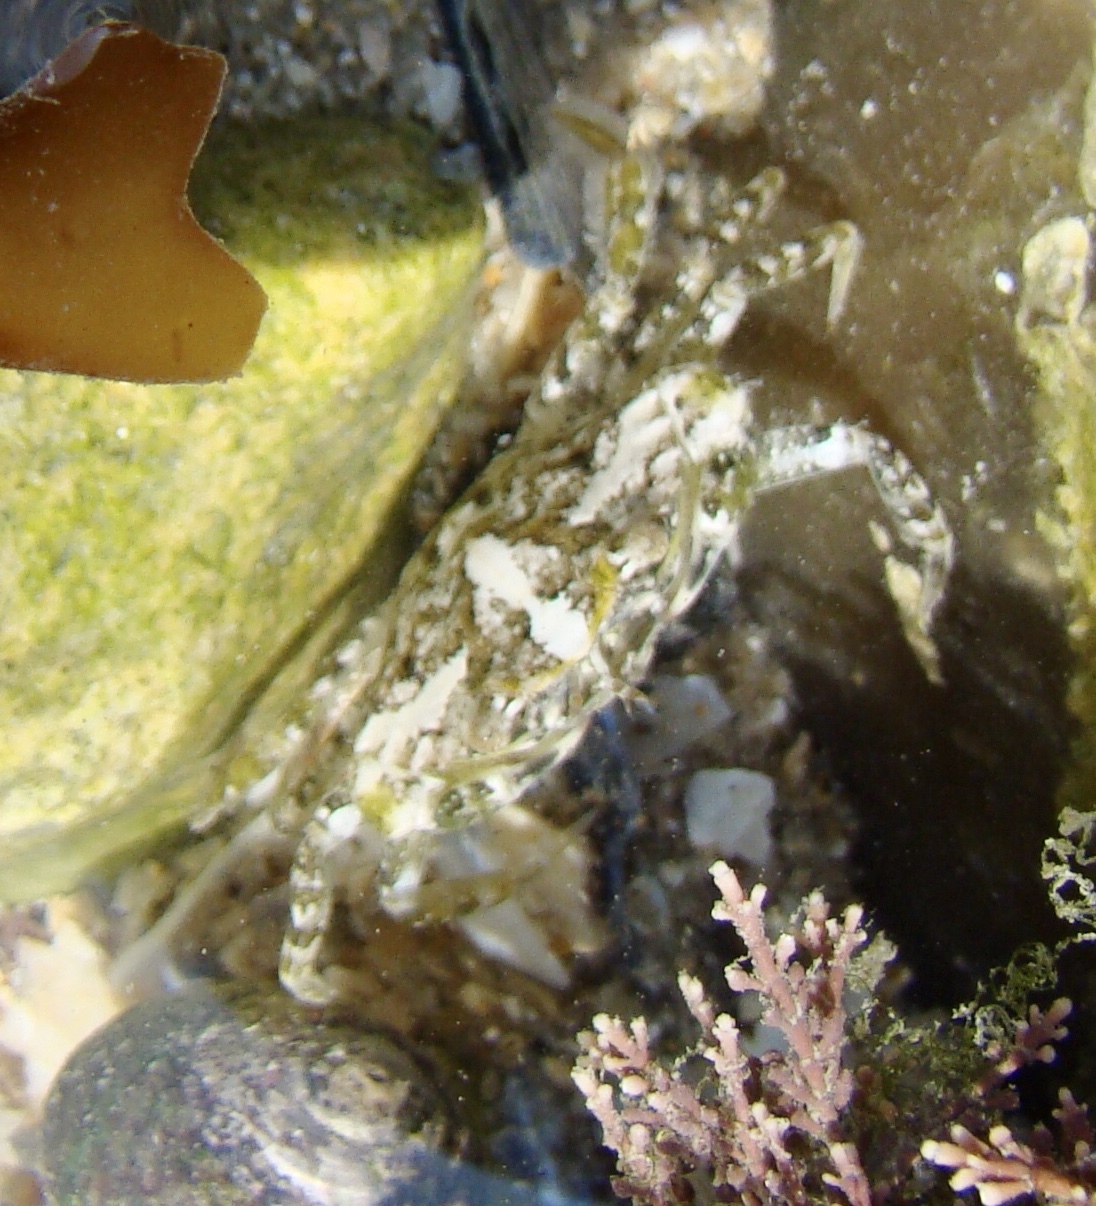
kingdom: Animalia
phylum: Arthropoda
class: Malacostraca
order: Decapoda
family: Carcinidae
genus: Carcinus
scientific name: Carcinus maenas
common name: European green crab
